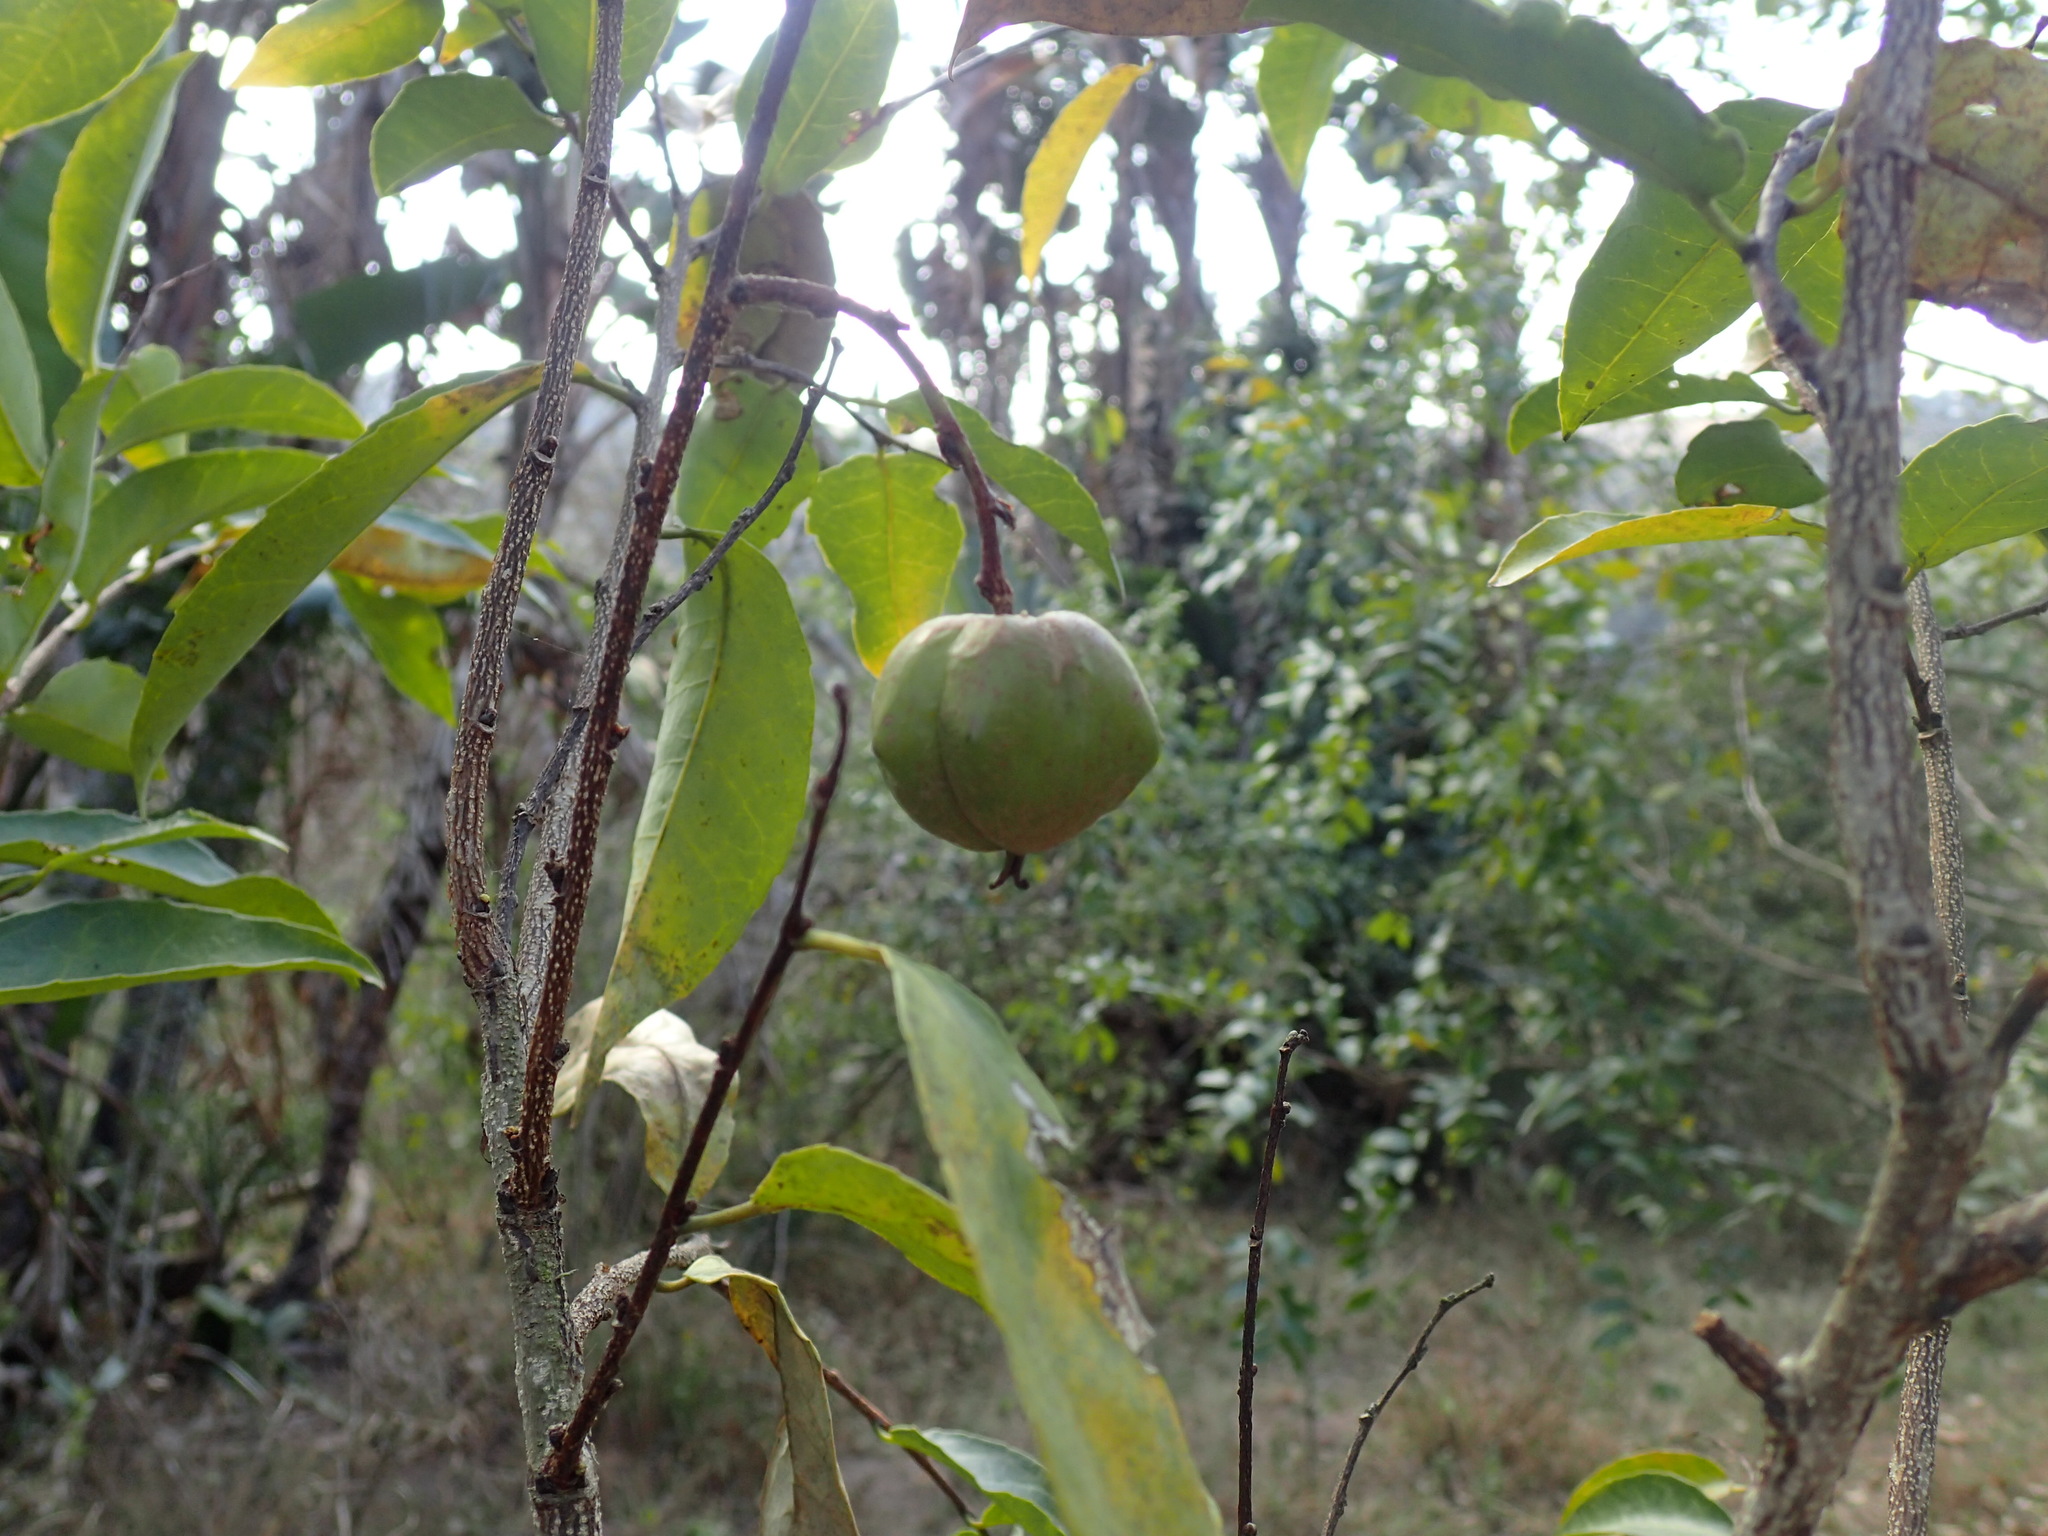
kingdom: Plantae
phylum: Tracheophyta
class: Magnoliopsida
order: Malpighiales
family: Euphorbiaceae
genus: Sclerocroton
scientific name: Sclerocroton integerrimus
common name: Duiker berry
